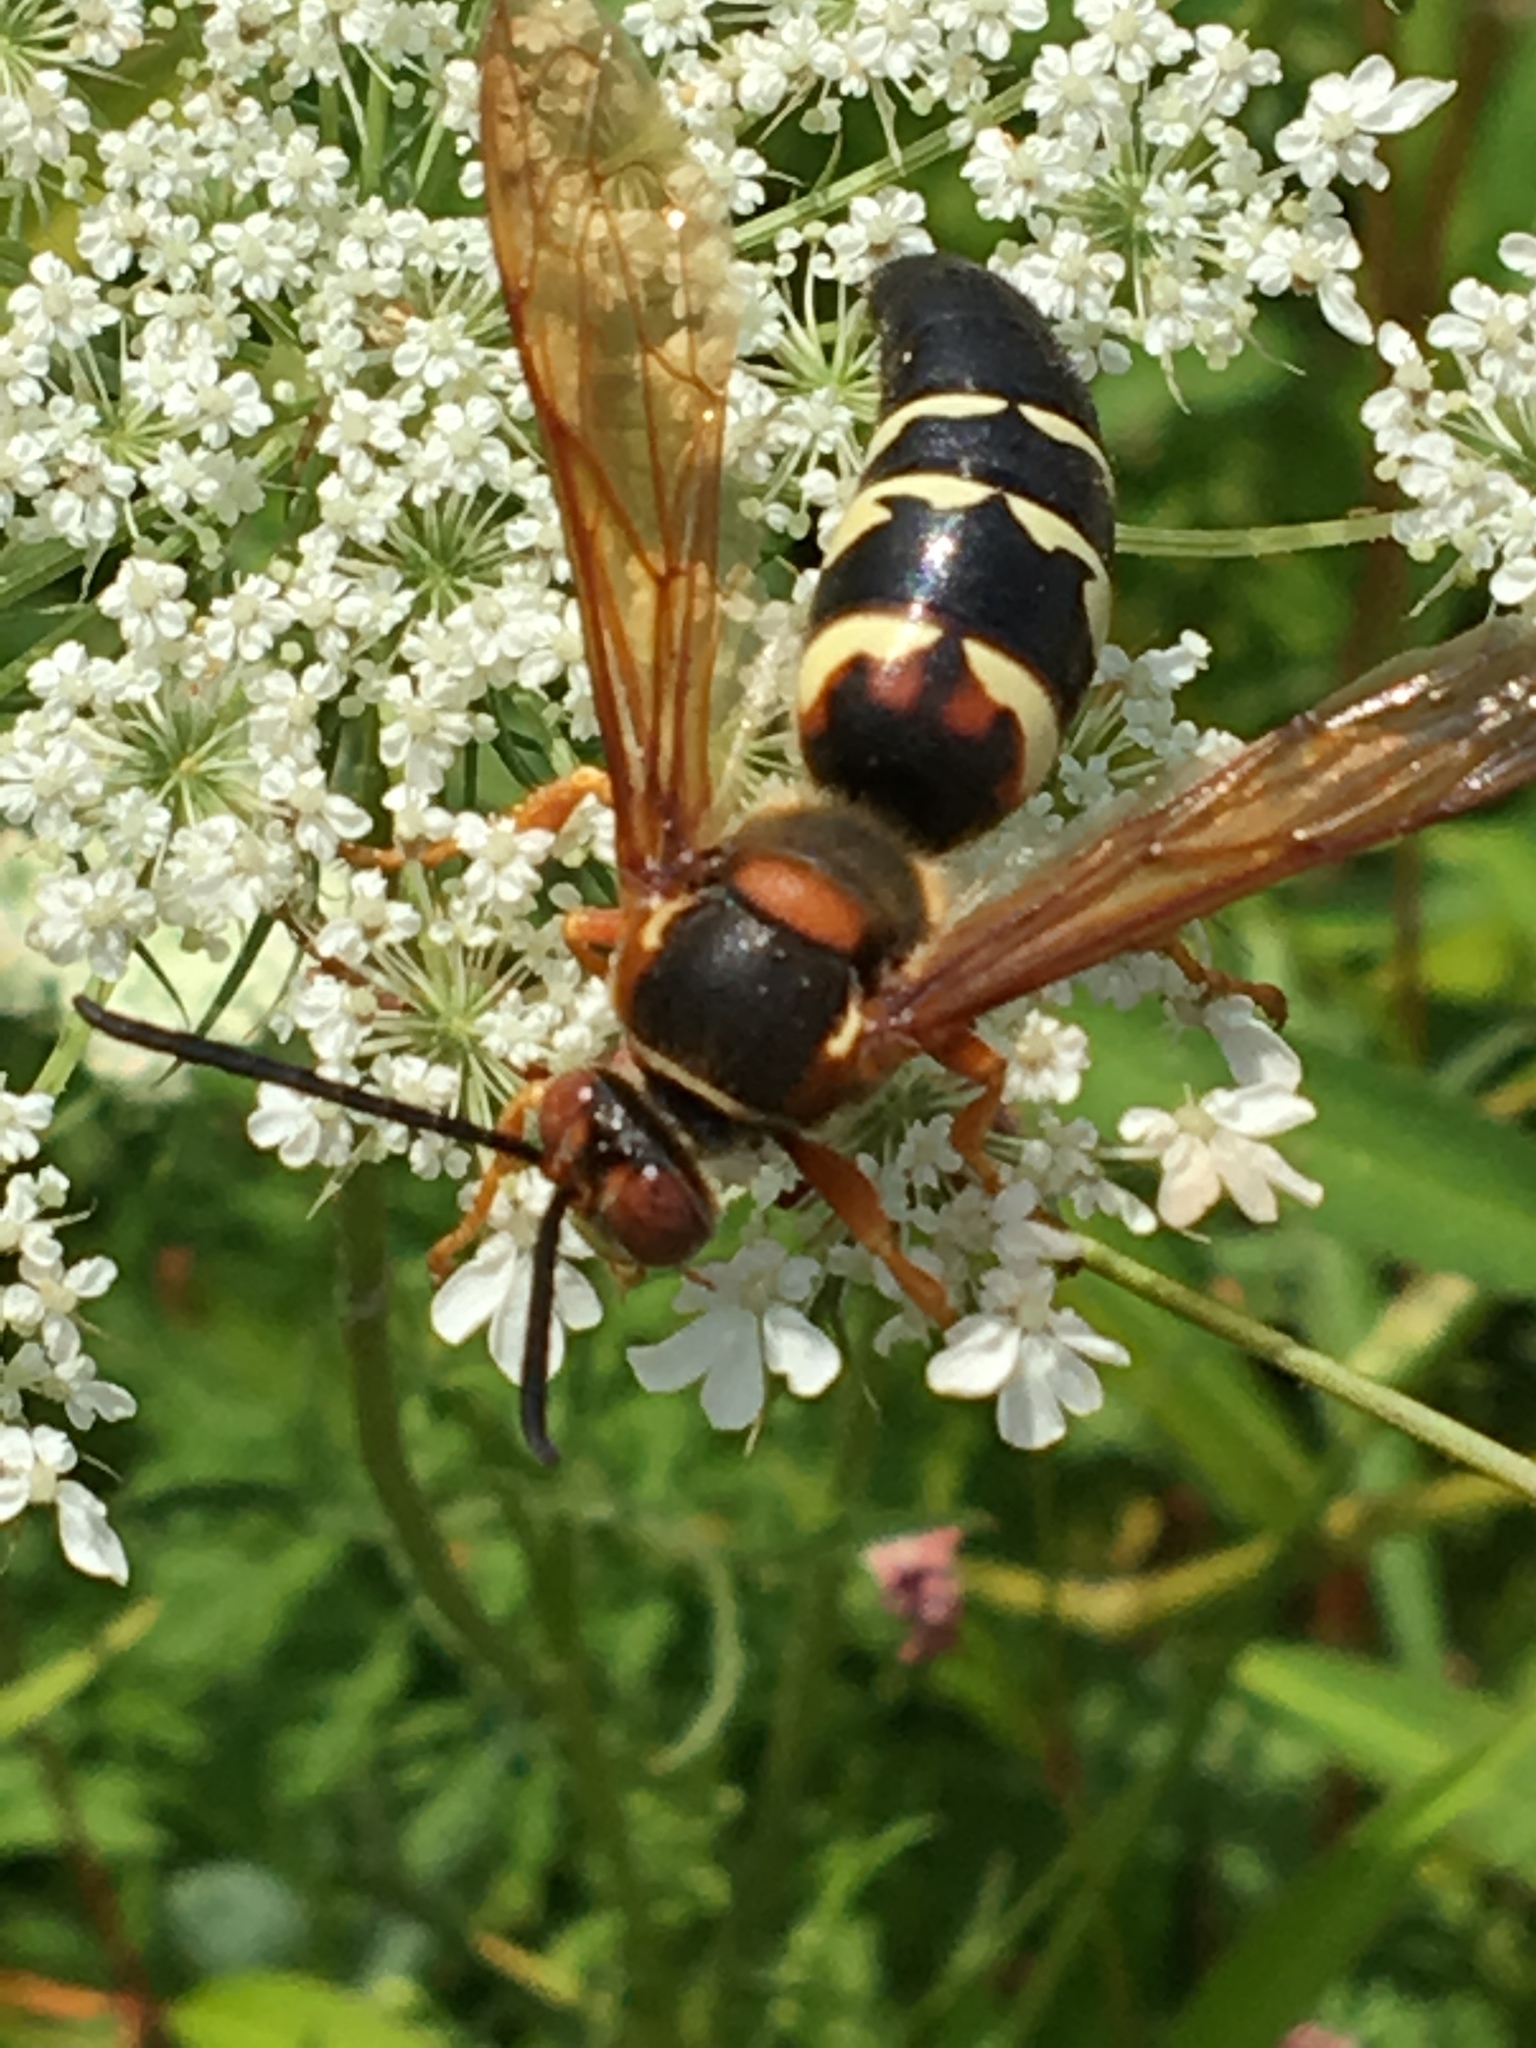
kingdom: Animalia
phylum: Arthropoda
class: Insecta
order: Hymenoptera
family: Crabronidae
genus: Sphecius
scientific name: Sphecius speciosus
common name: Cicada killer
